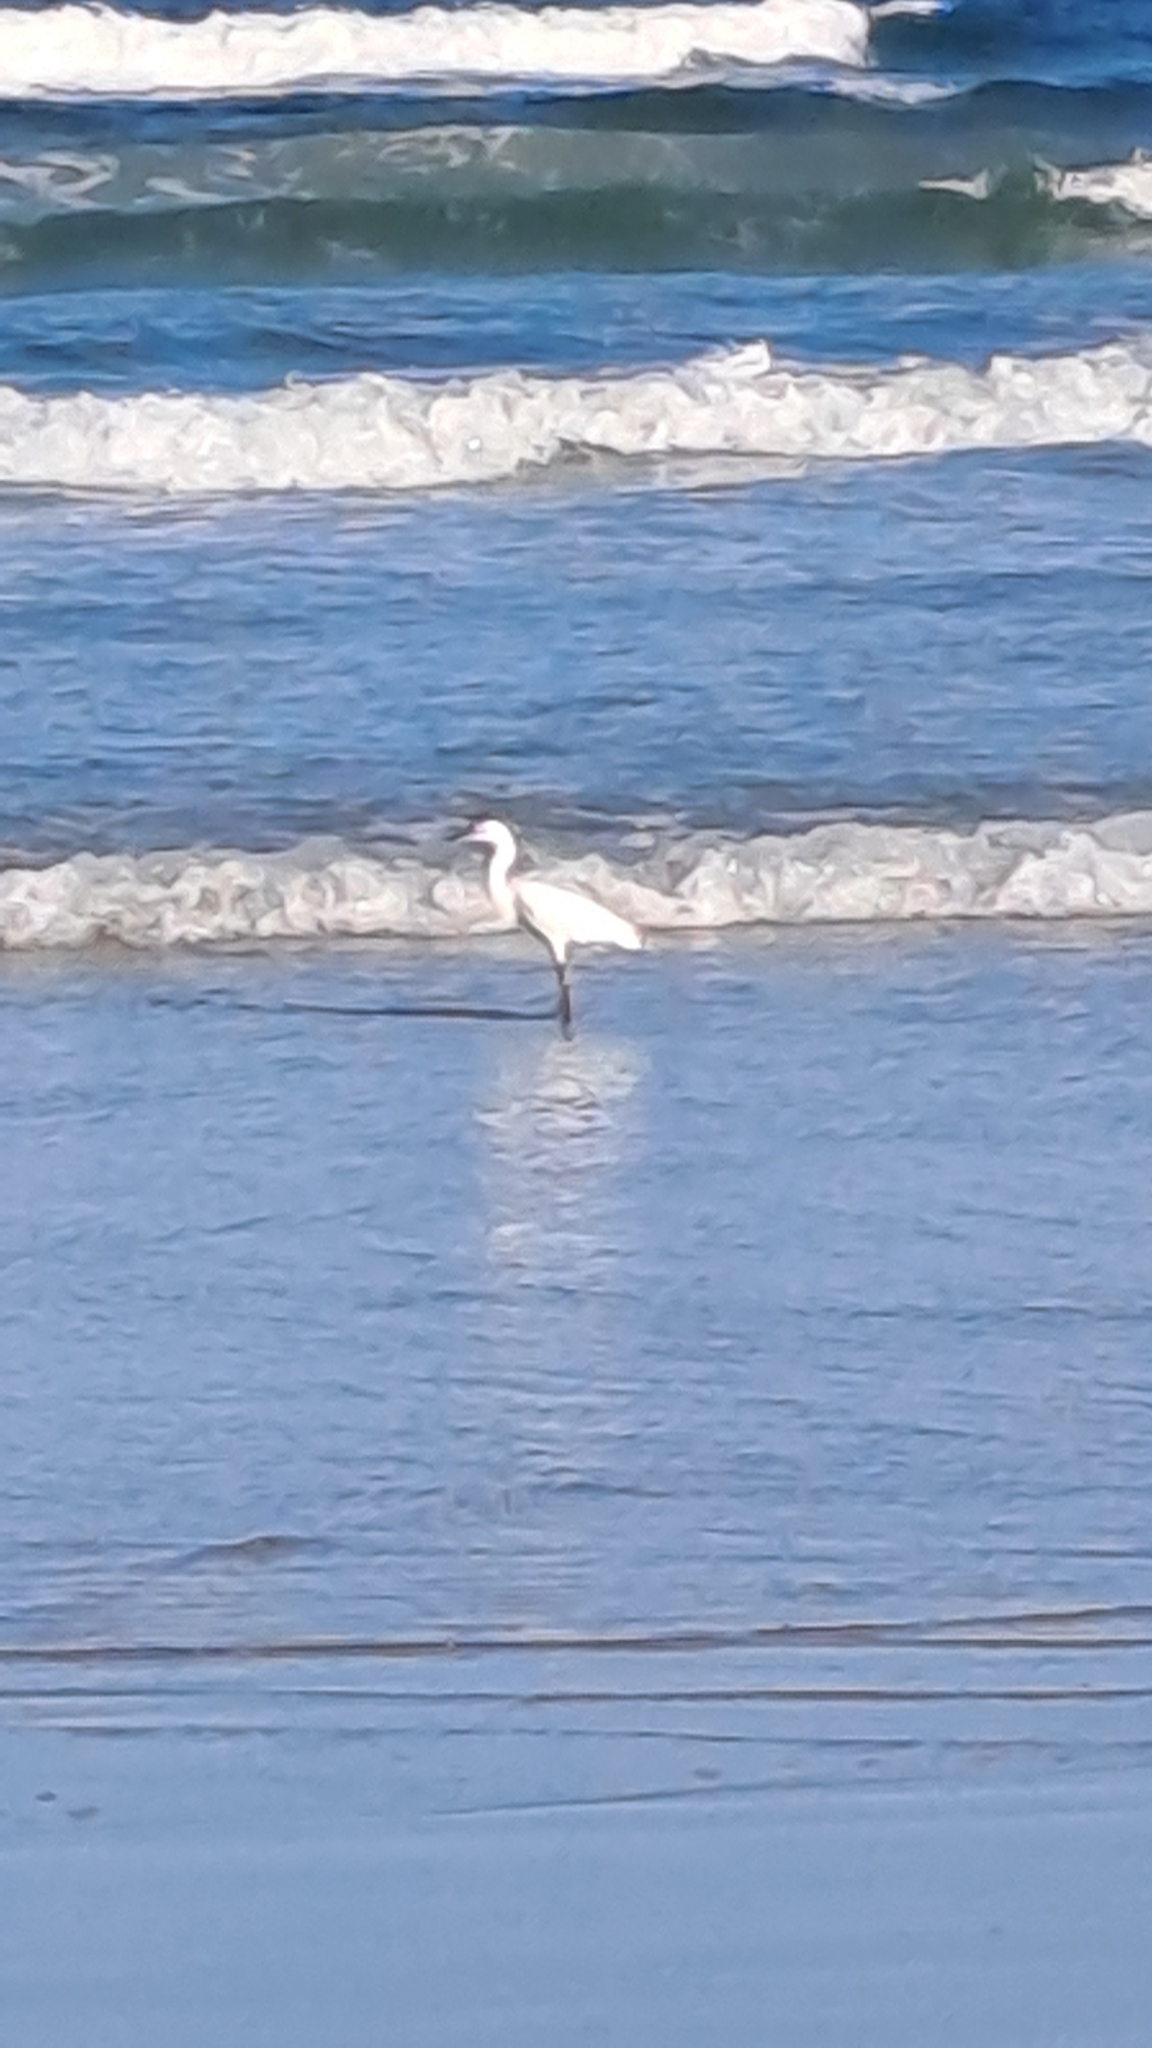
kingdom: Animalia
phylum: Chordata
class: Aves
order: Pelecaniformes
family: Ardeidae
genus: Egretta
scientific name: Egretta thula
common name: Snowy egret
